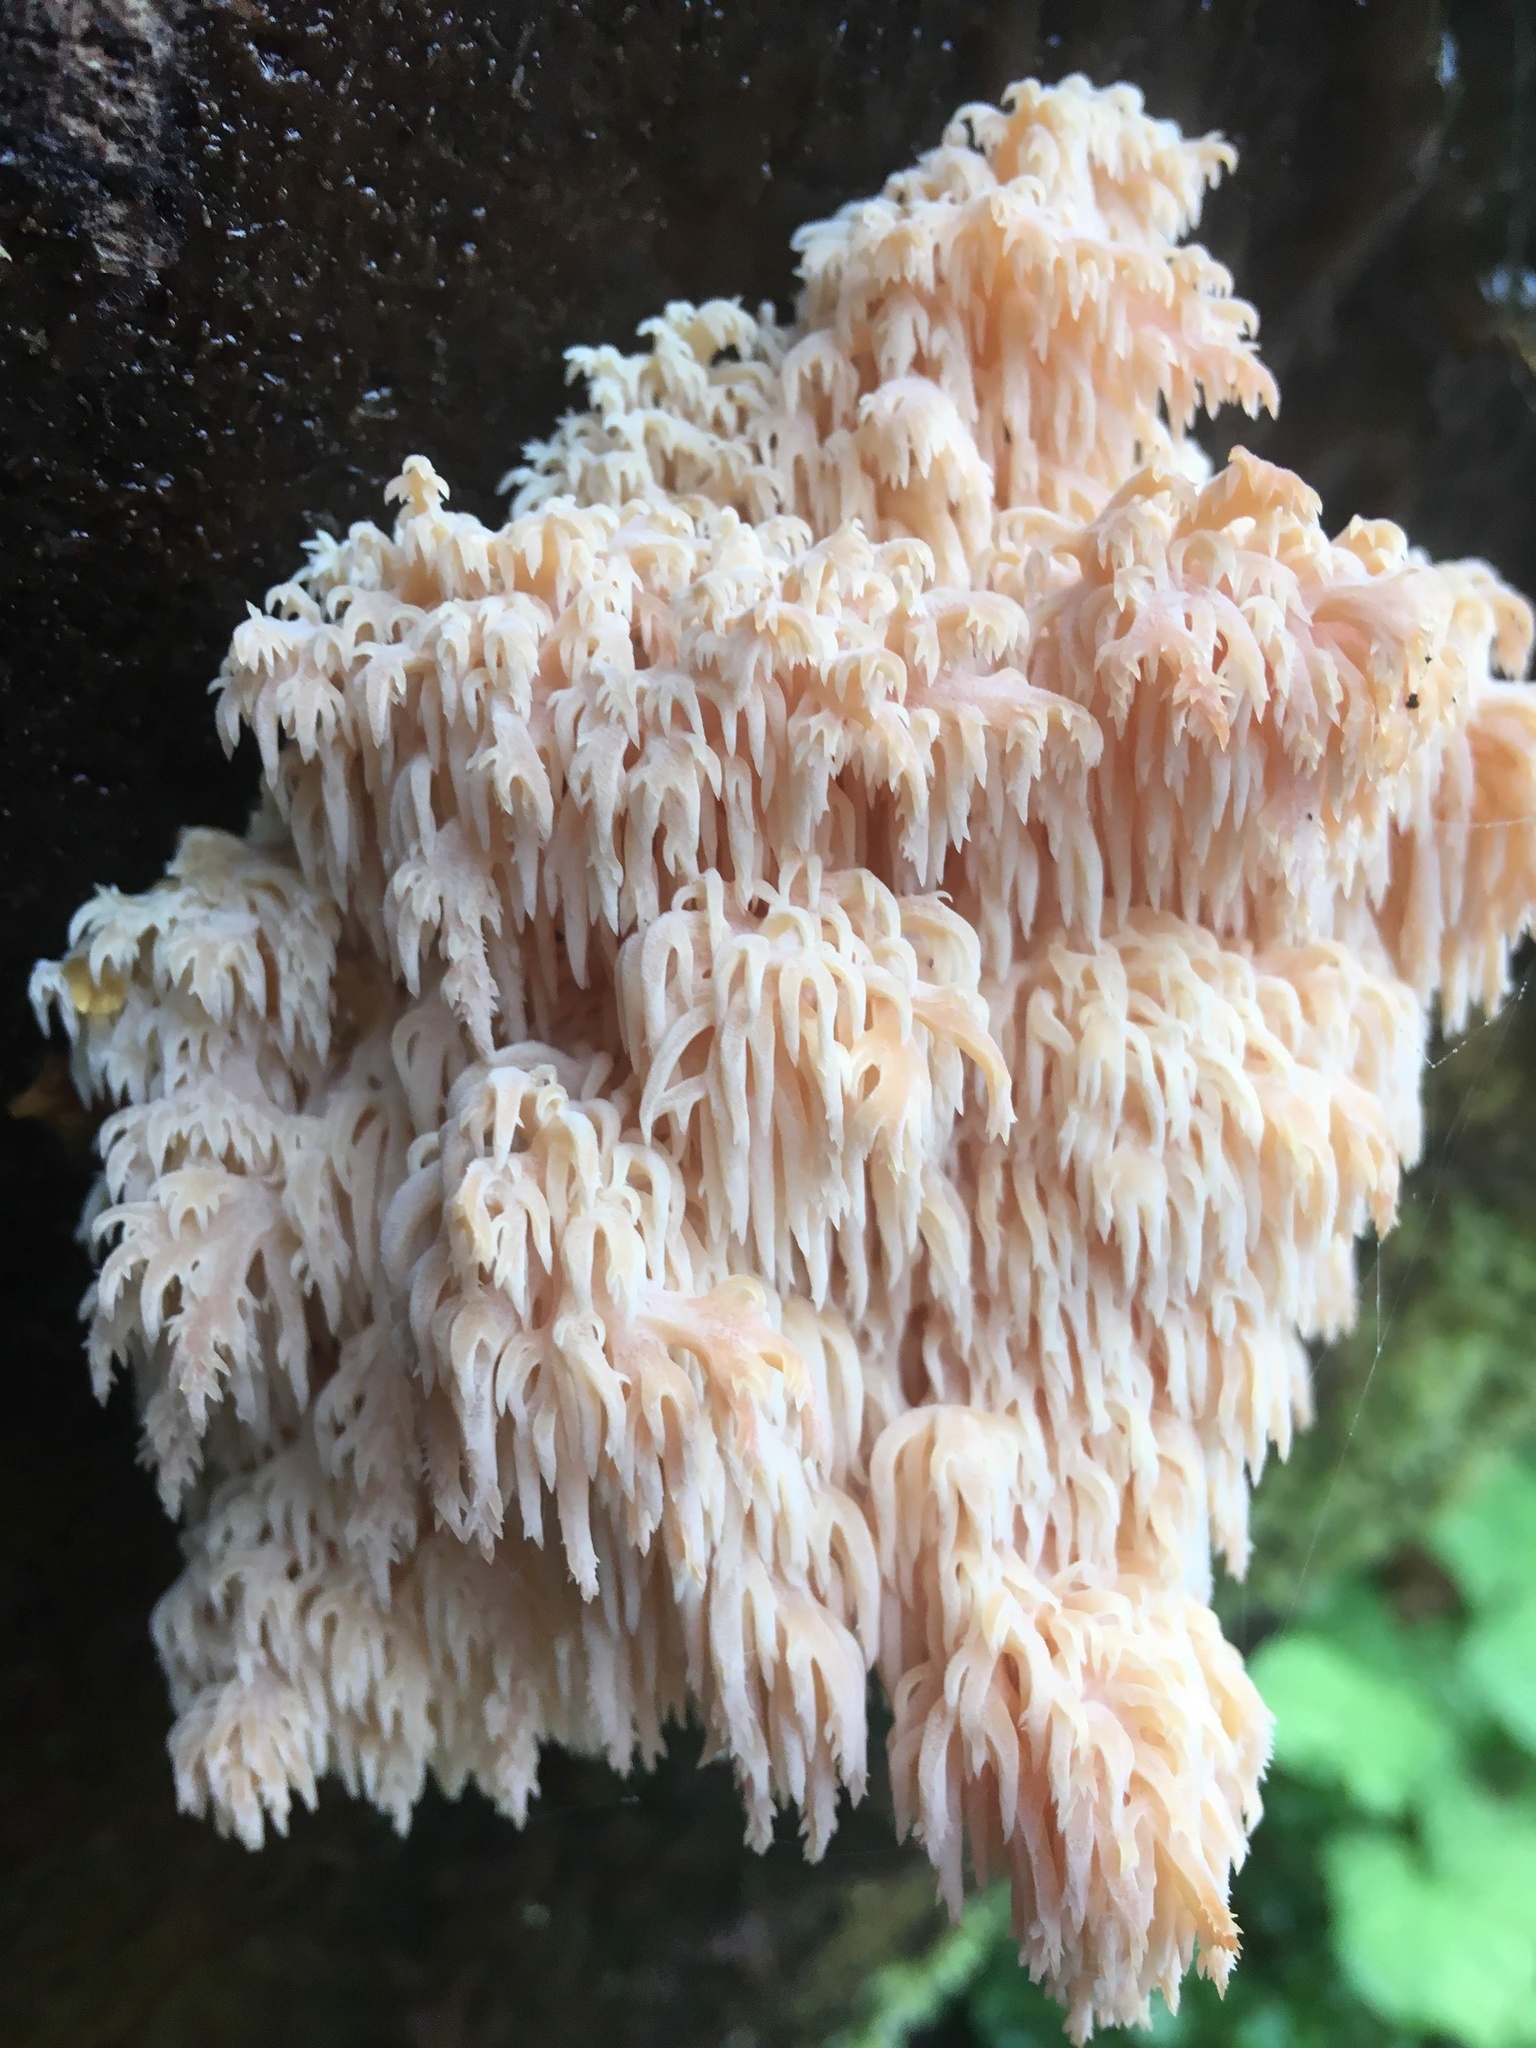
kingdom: Fungi
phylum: Basidiomycota
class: Agaricomycetes
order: Russulales
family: Hericiaceae
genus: Hericium
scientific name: Hericium coralloides
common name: Coral tooth
